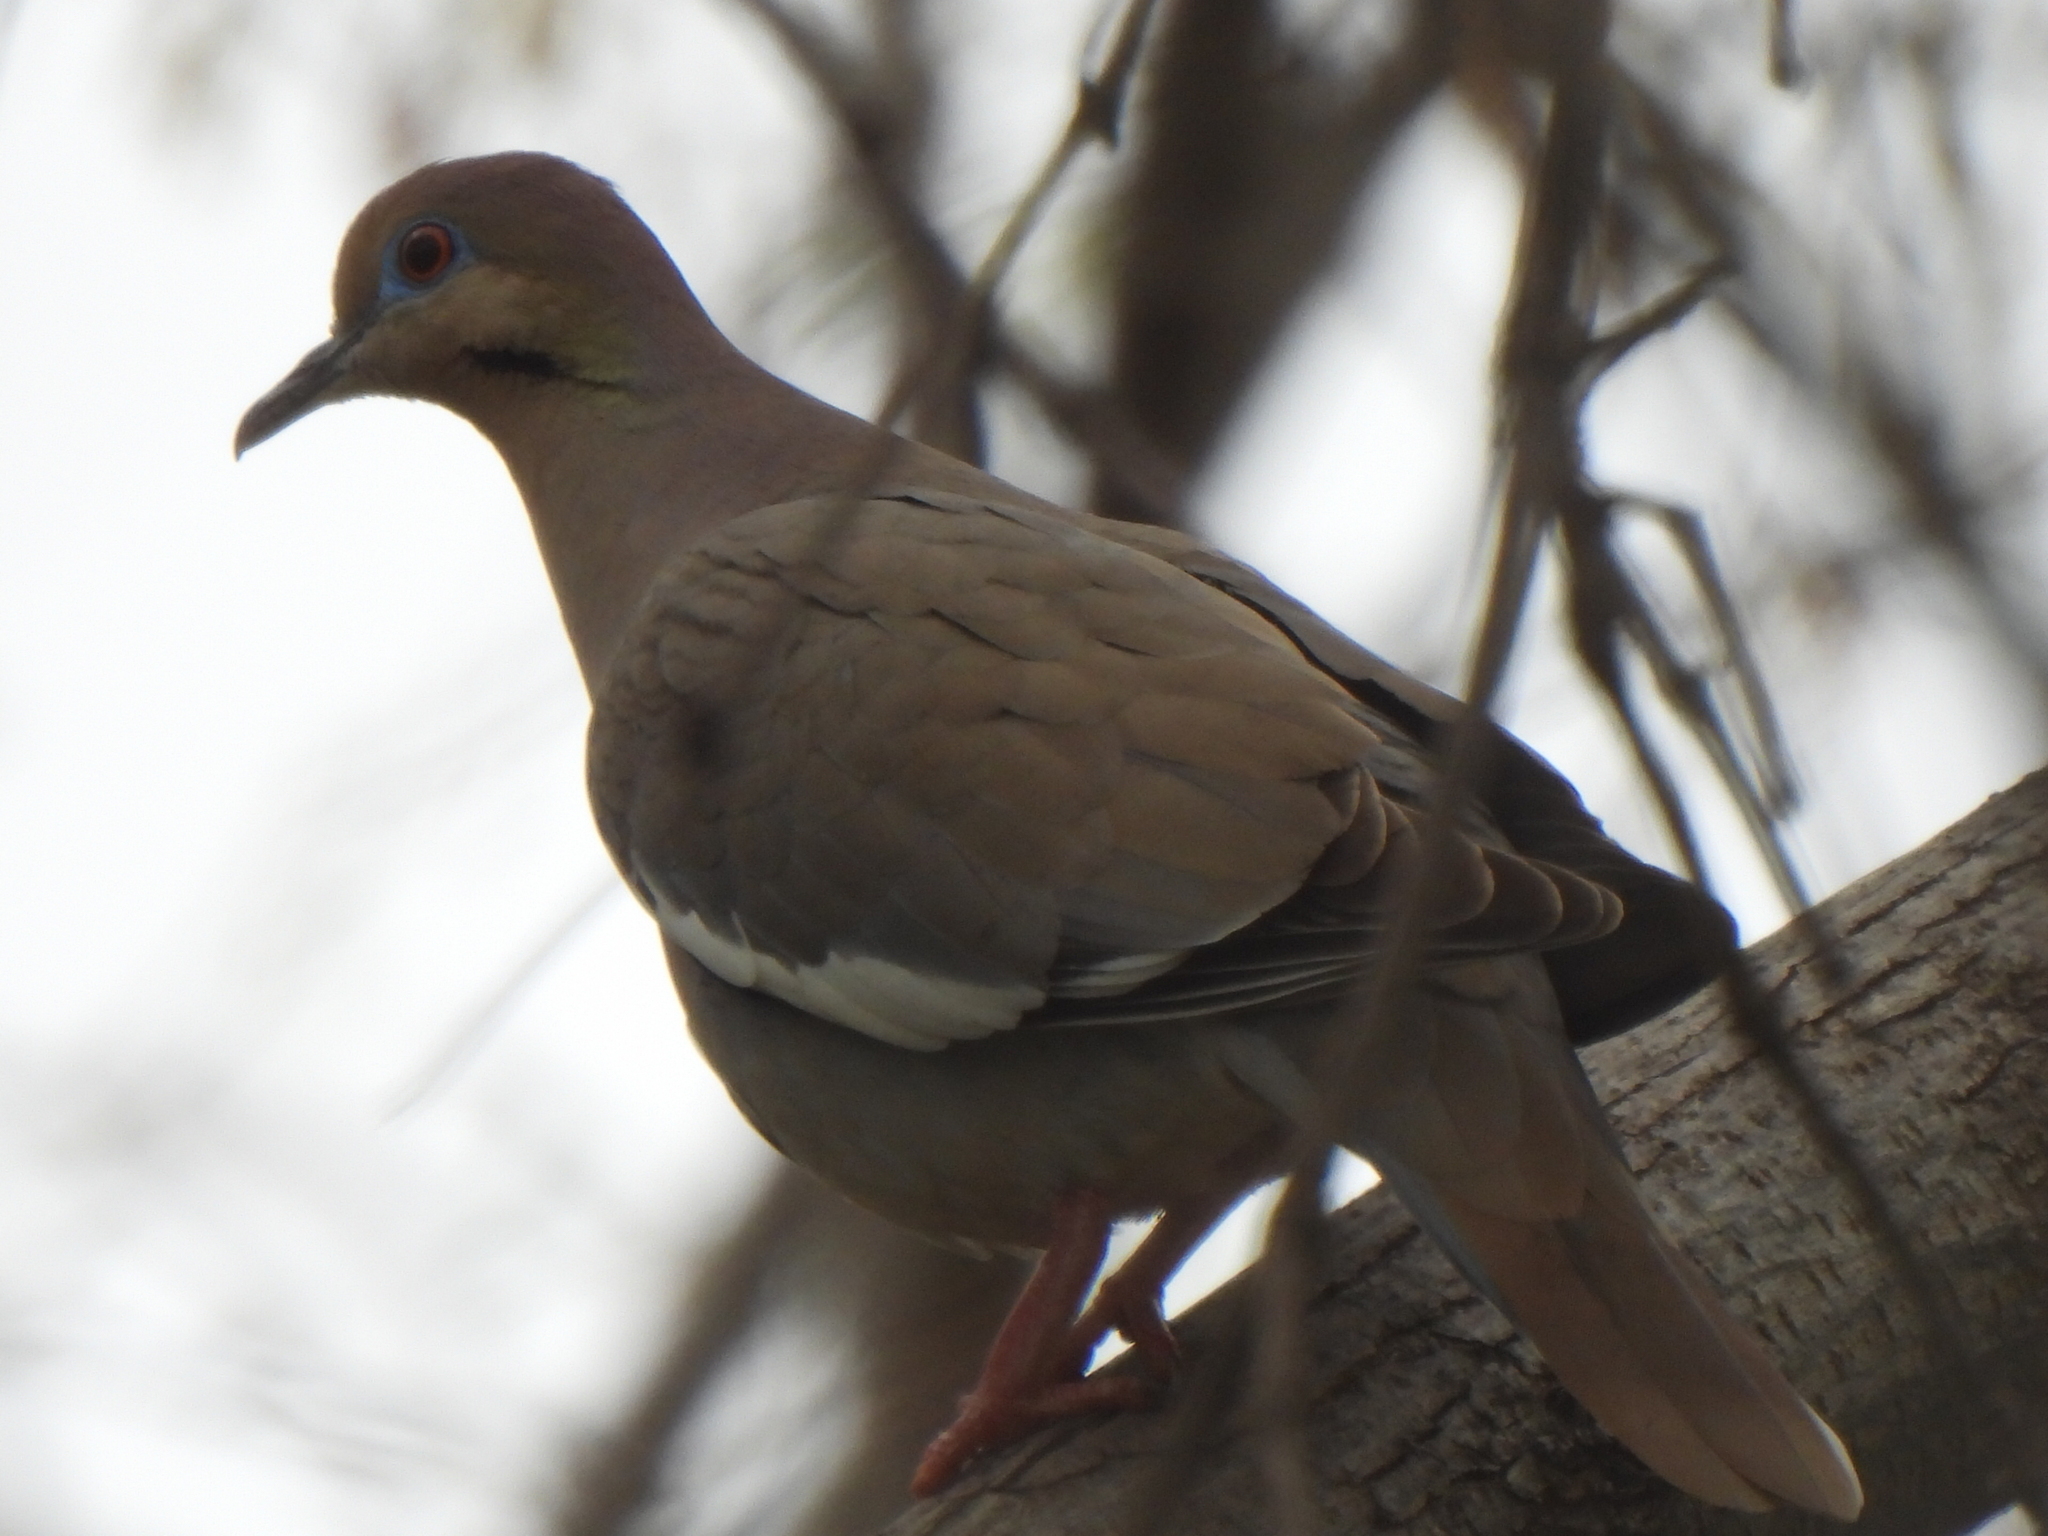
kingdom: Animalia
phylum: Chordata
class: Aves
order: Columbiformes
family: Columbidae
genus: Zenaida
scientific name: Zenaida asiatica
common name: White-winged dove
